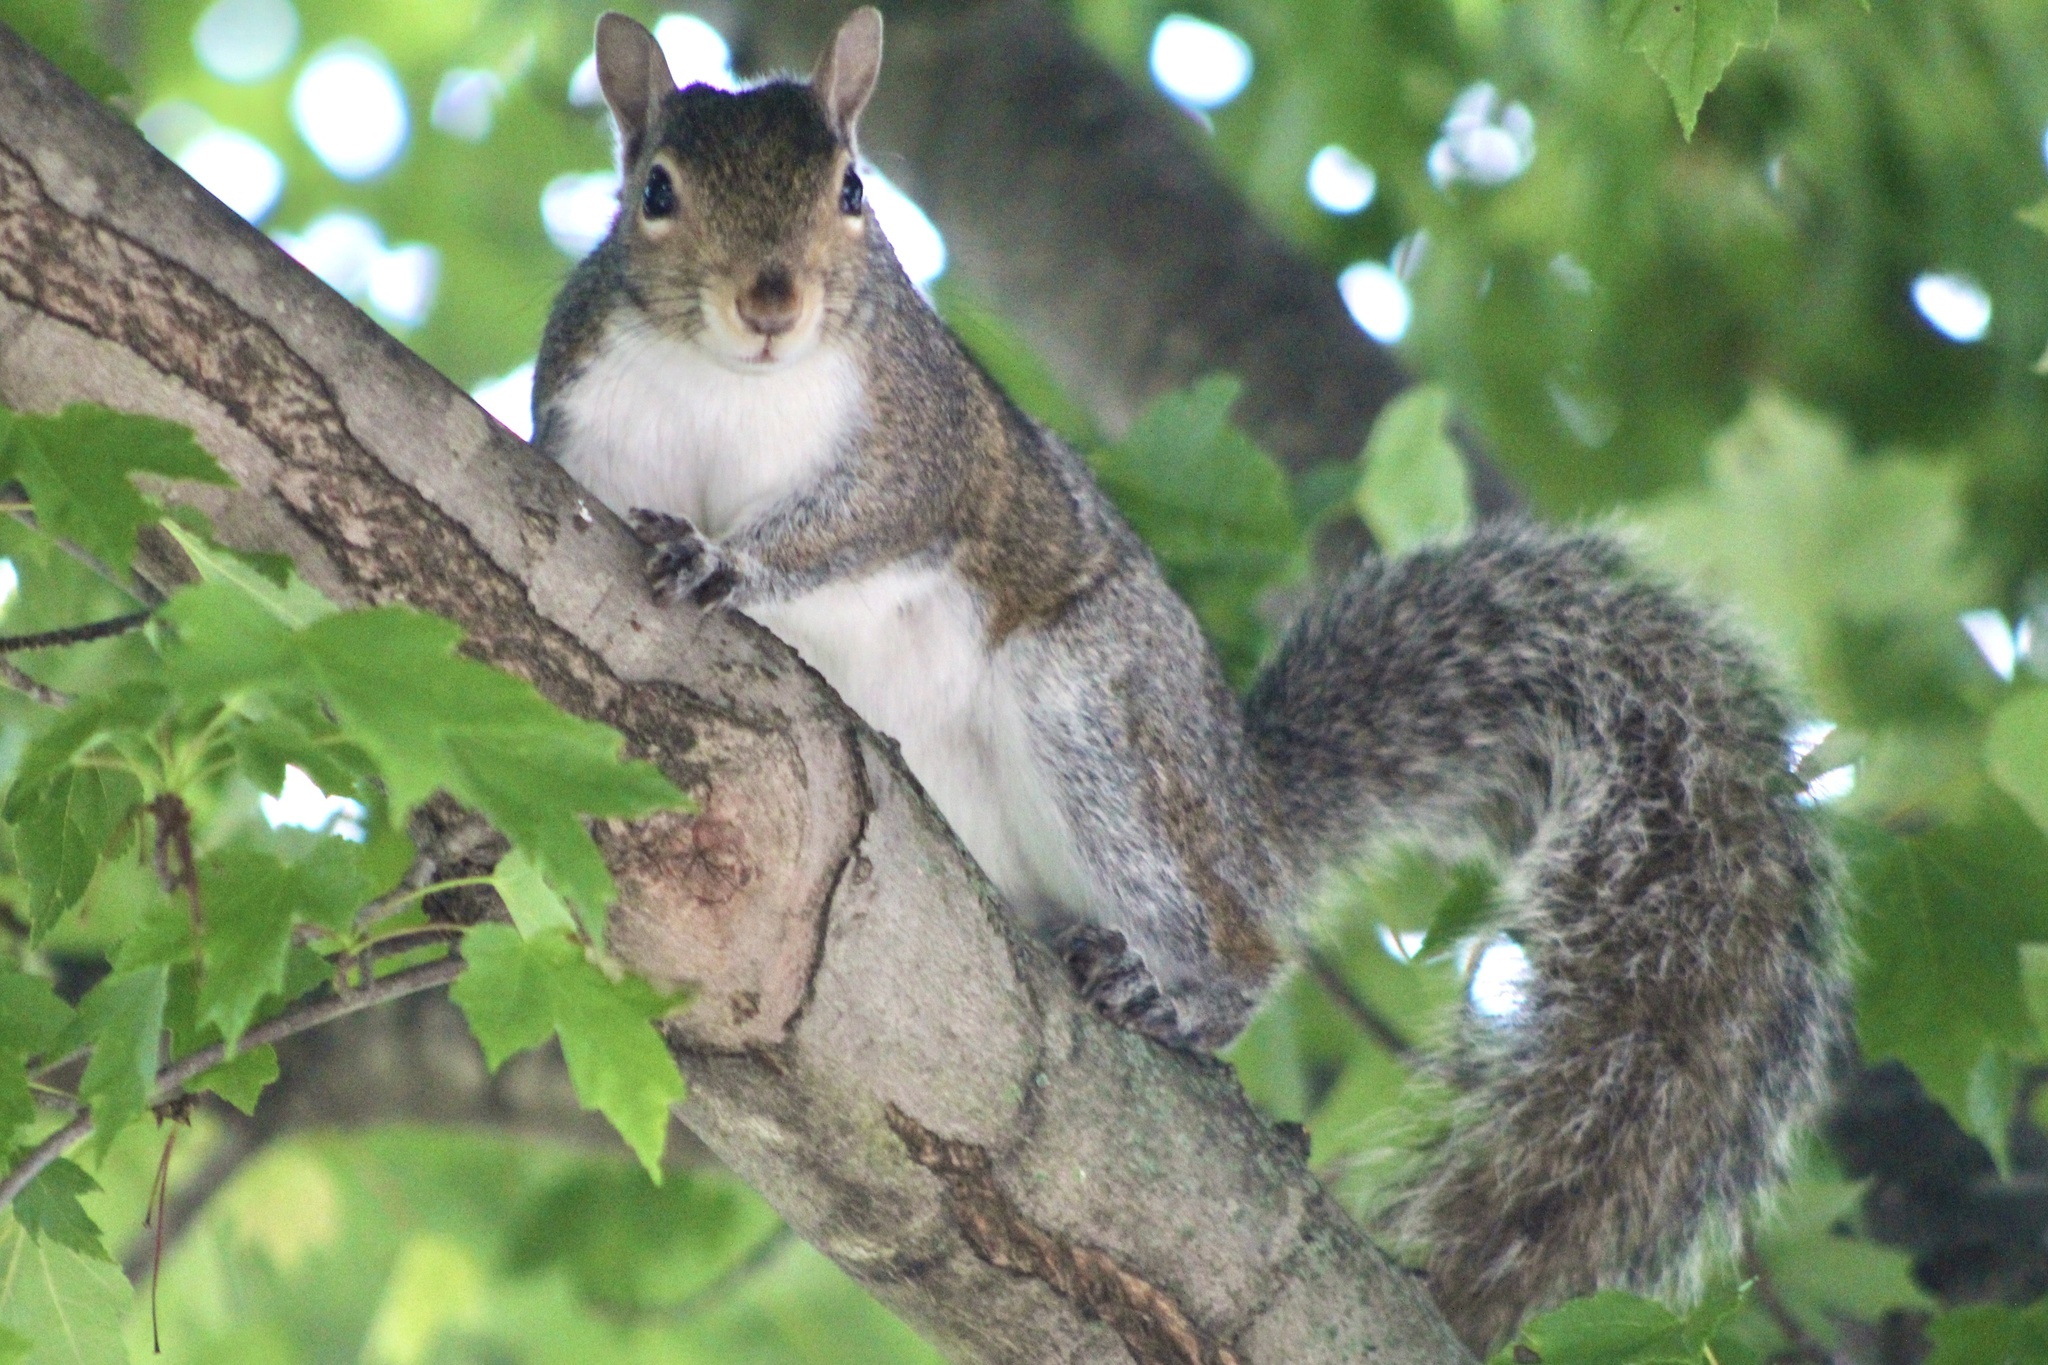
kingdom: Animalia
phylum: Chordata
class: Mammalia
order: Rodentia
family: Sciuridae
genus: Sciurus
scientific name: Sciurus carolinensis
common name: Eastern gray squirrel
